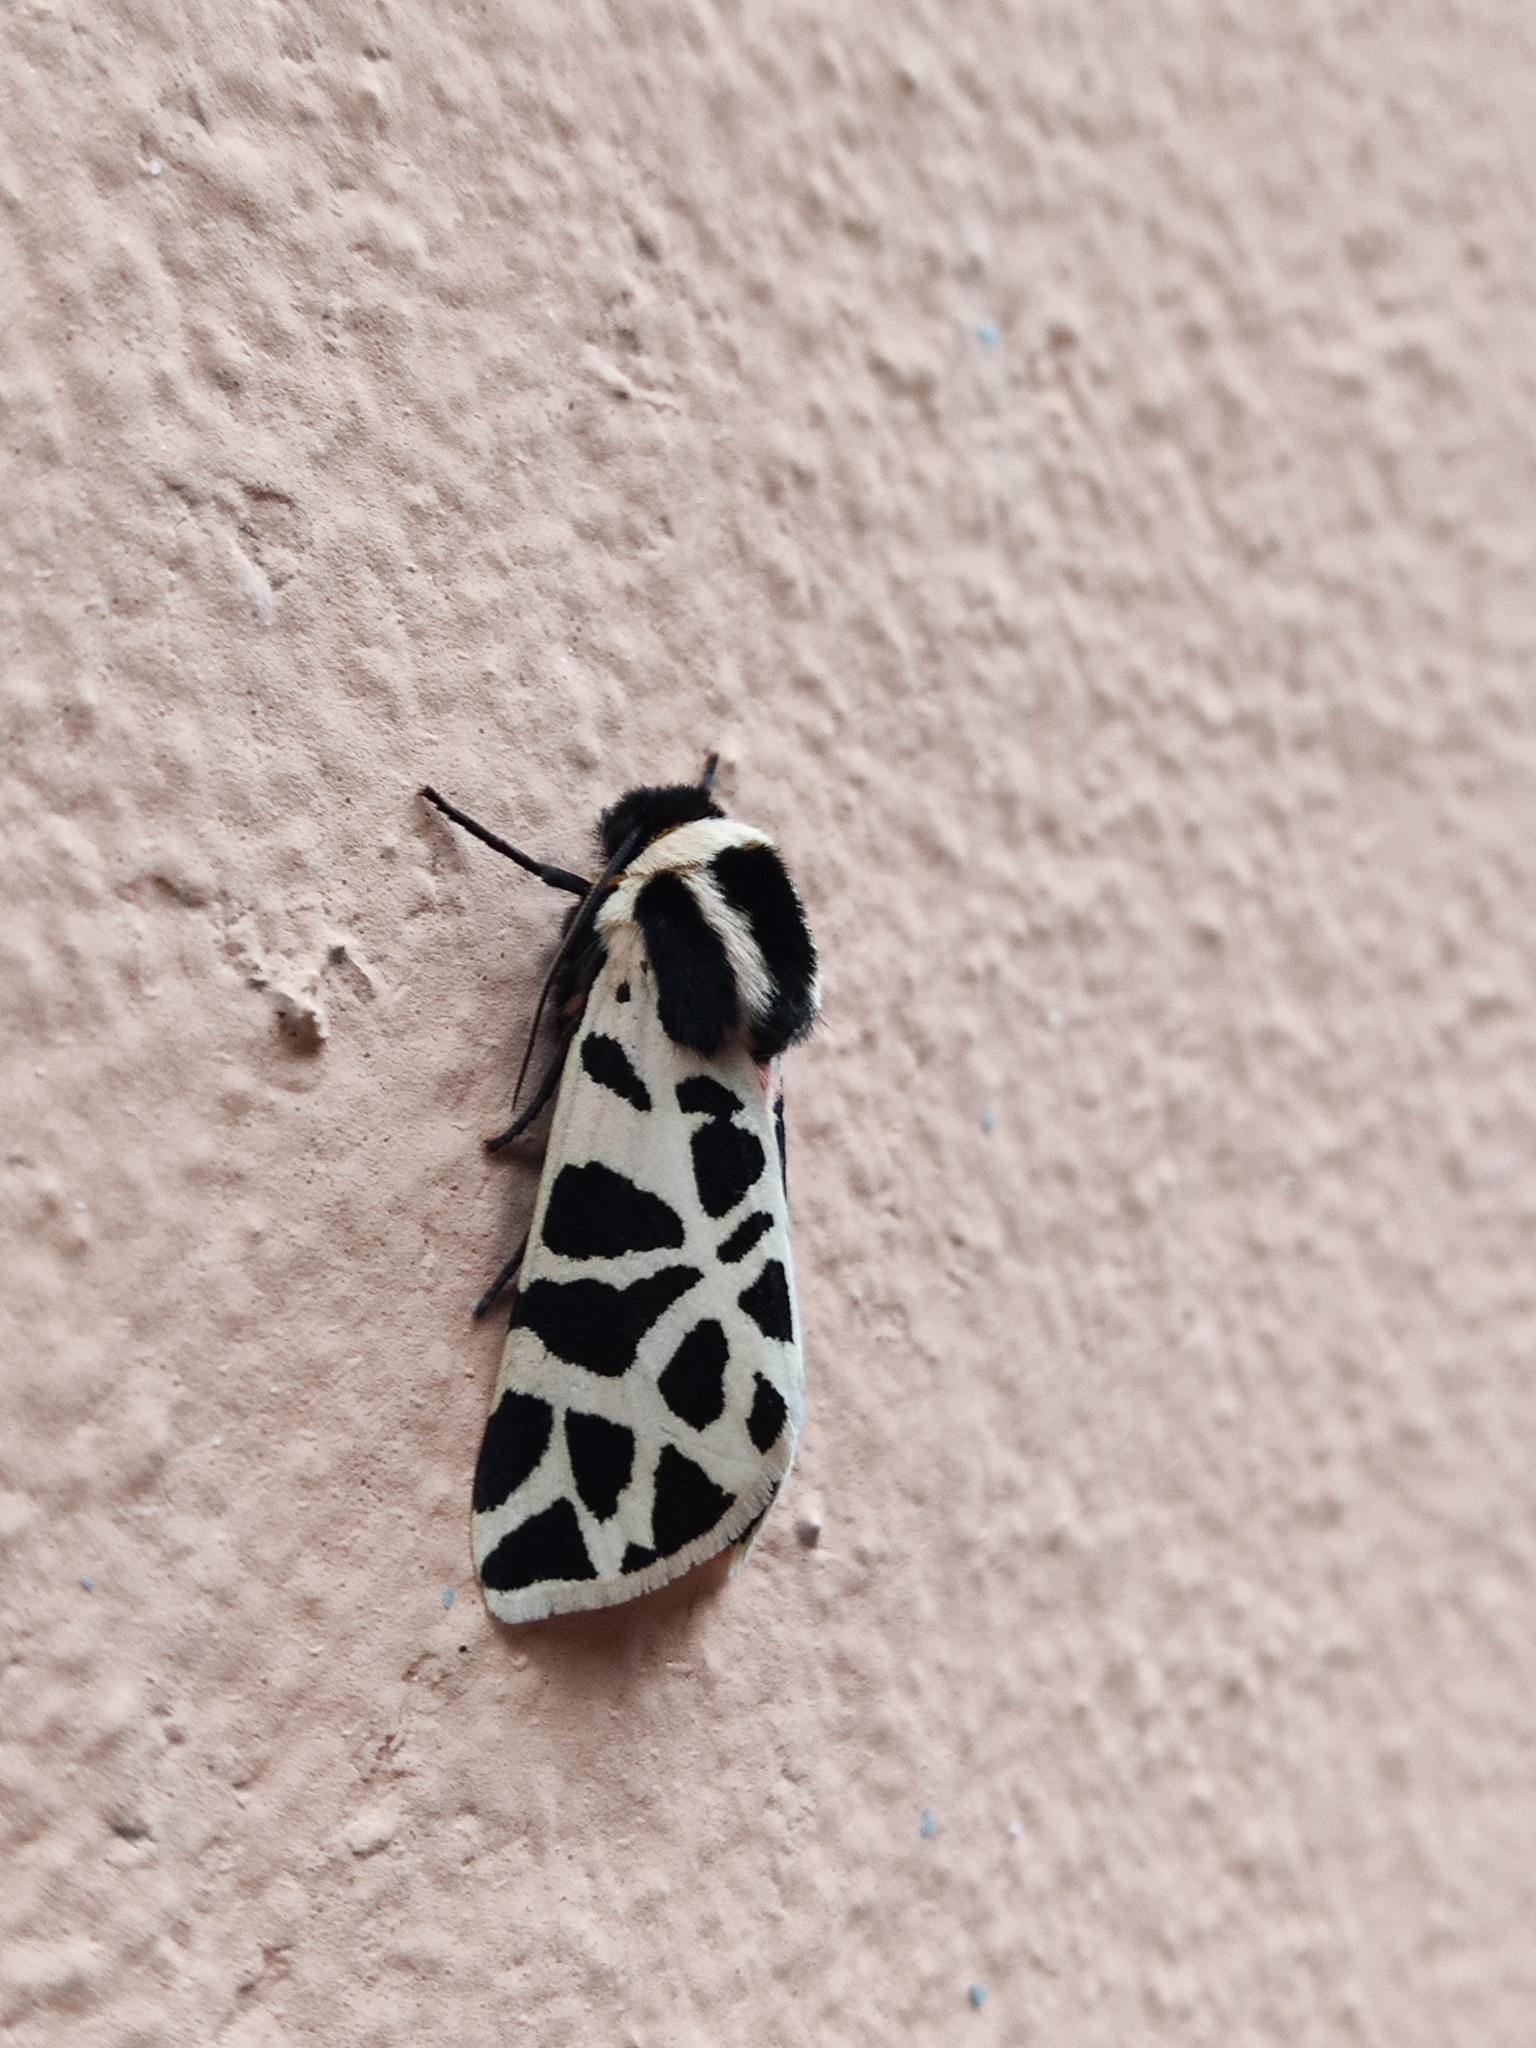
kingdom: Animalia
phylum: Arthropoda
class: Insecta
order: Lepidoptera
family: Erebidae
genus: Cymbalophora
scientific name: Cymbalophora pudica
